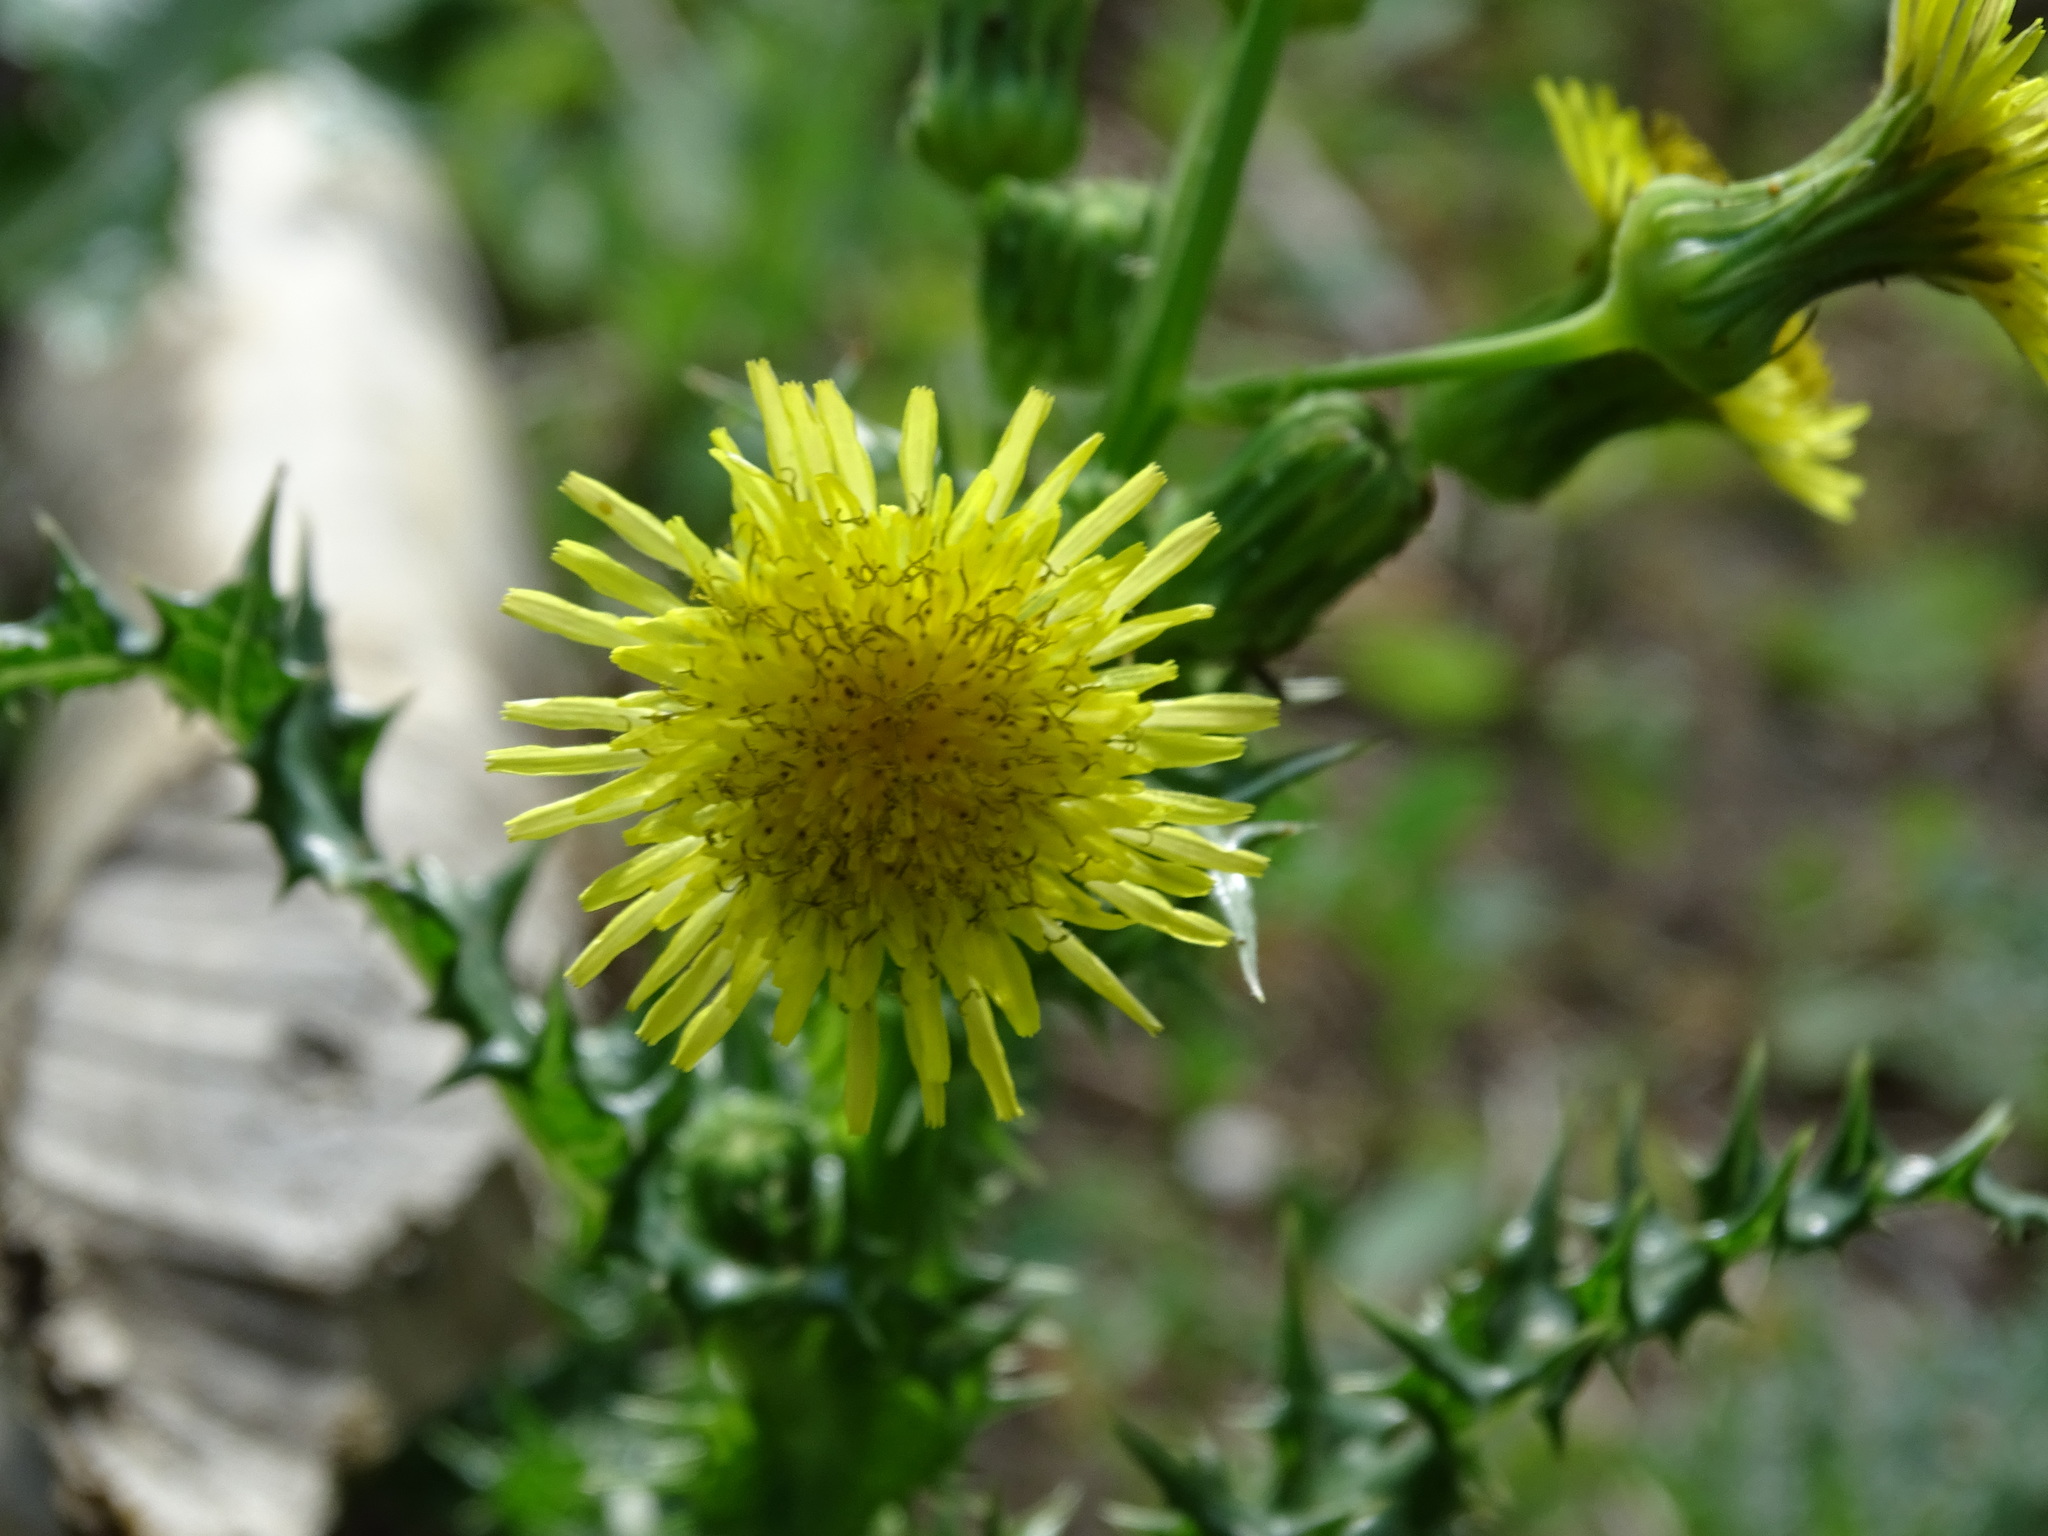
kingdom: Plantae
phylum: Tracheophyta
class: Magnoliopsida
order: Asterales
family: Asteraceae
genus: Sonchus
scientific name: Sonchus asper
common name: Prickly sow-thistle
